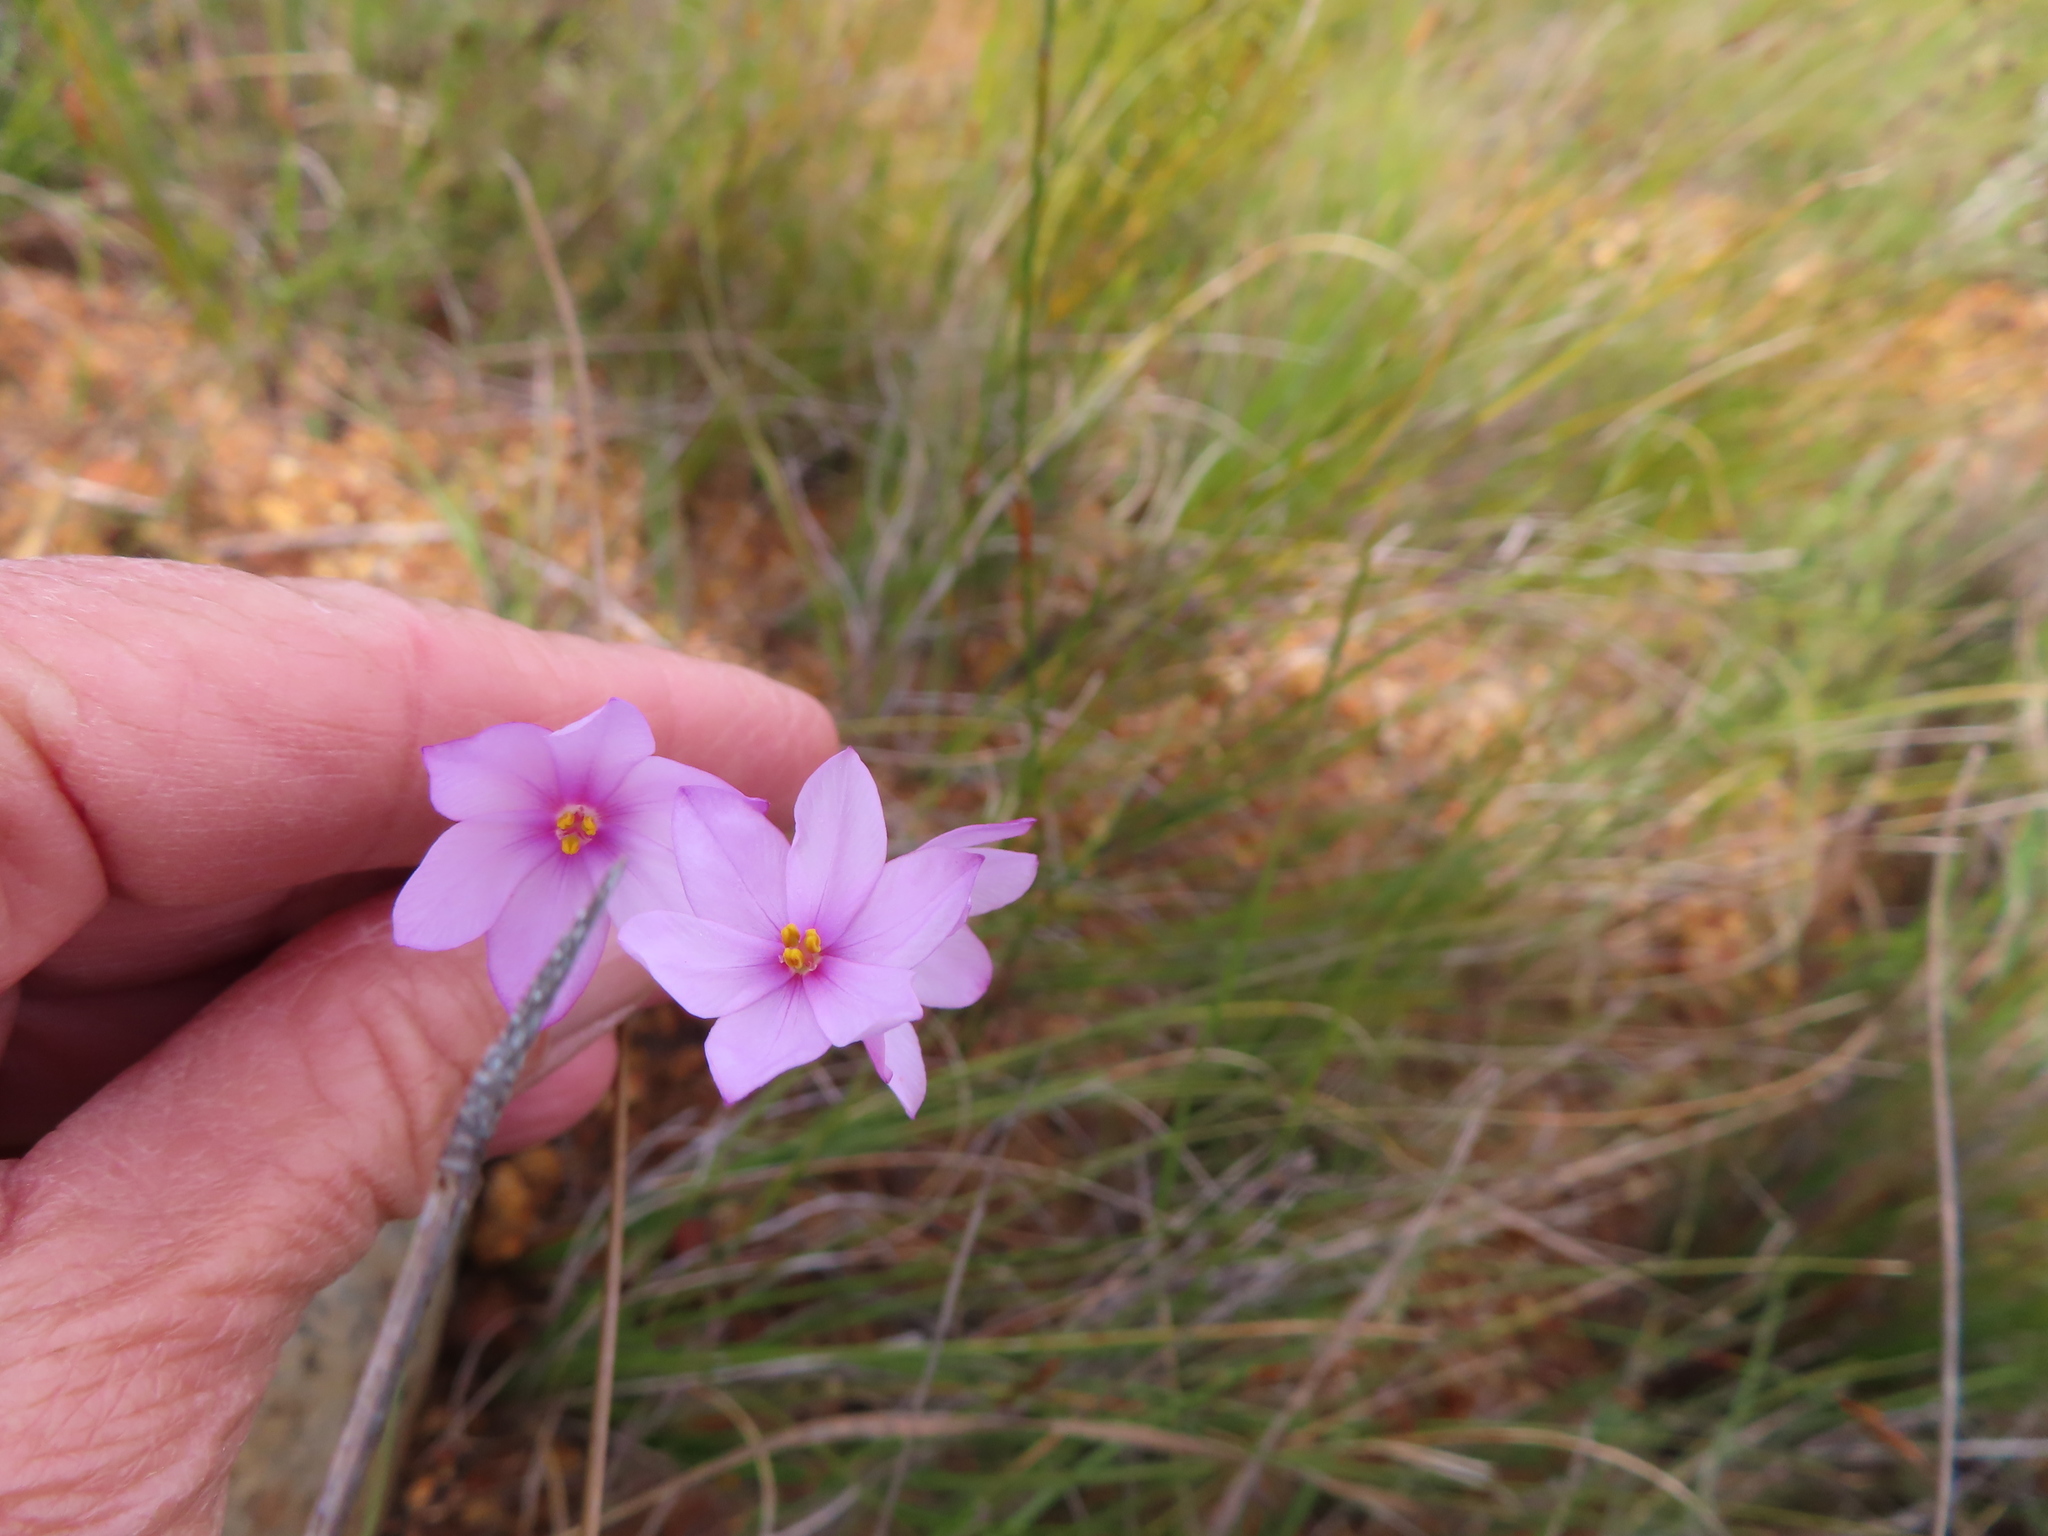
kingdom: Plantae
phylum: Tracheophyta
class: Liliopsida
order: Asparagales
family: Iridaceae
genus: Ixia
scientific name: Ixia micrandra
